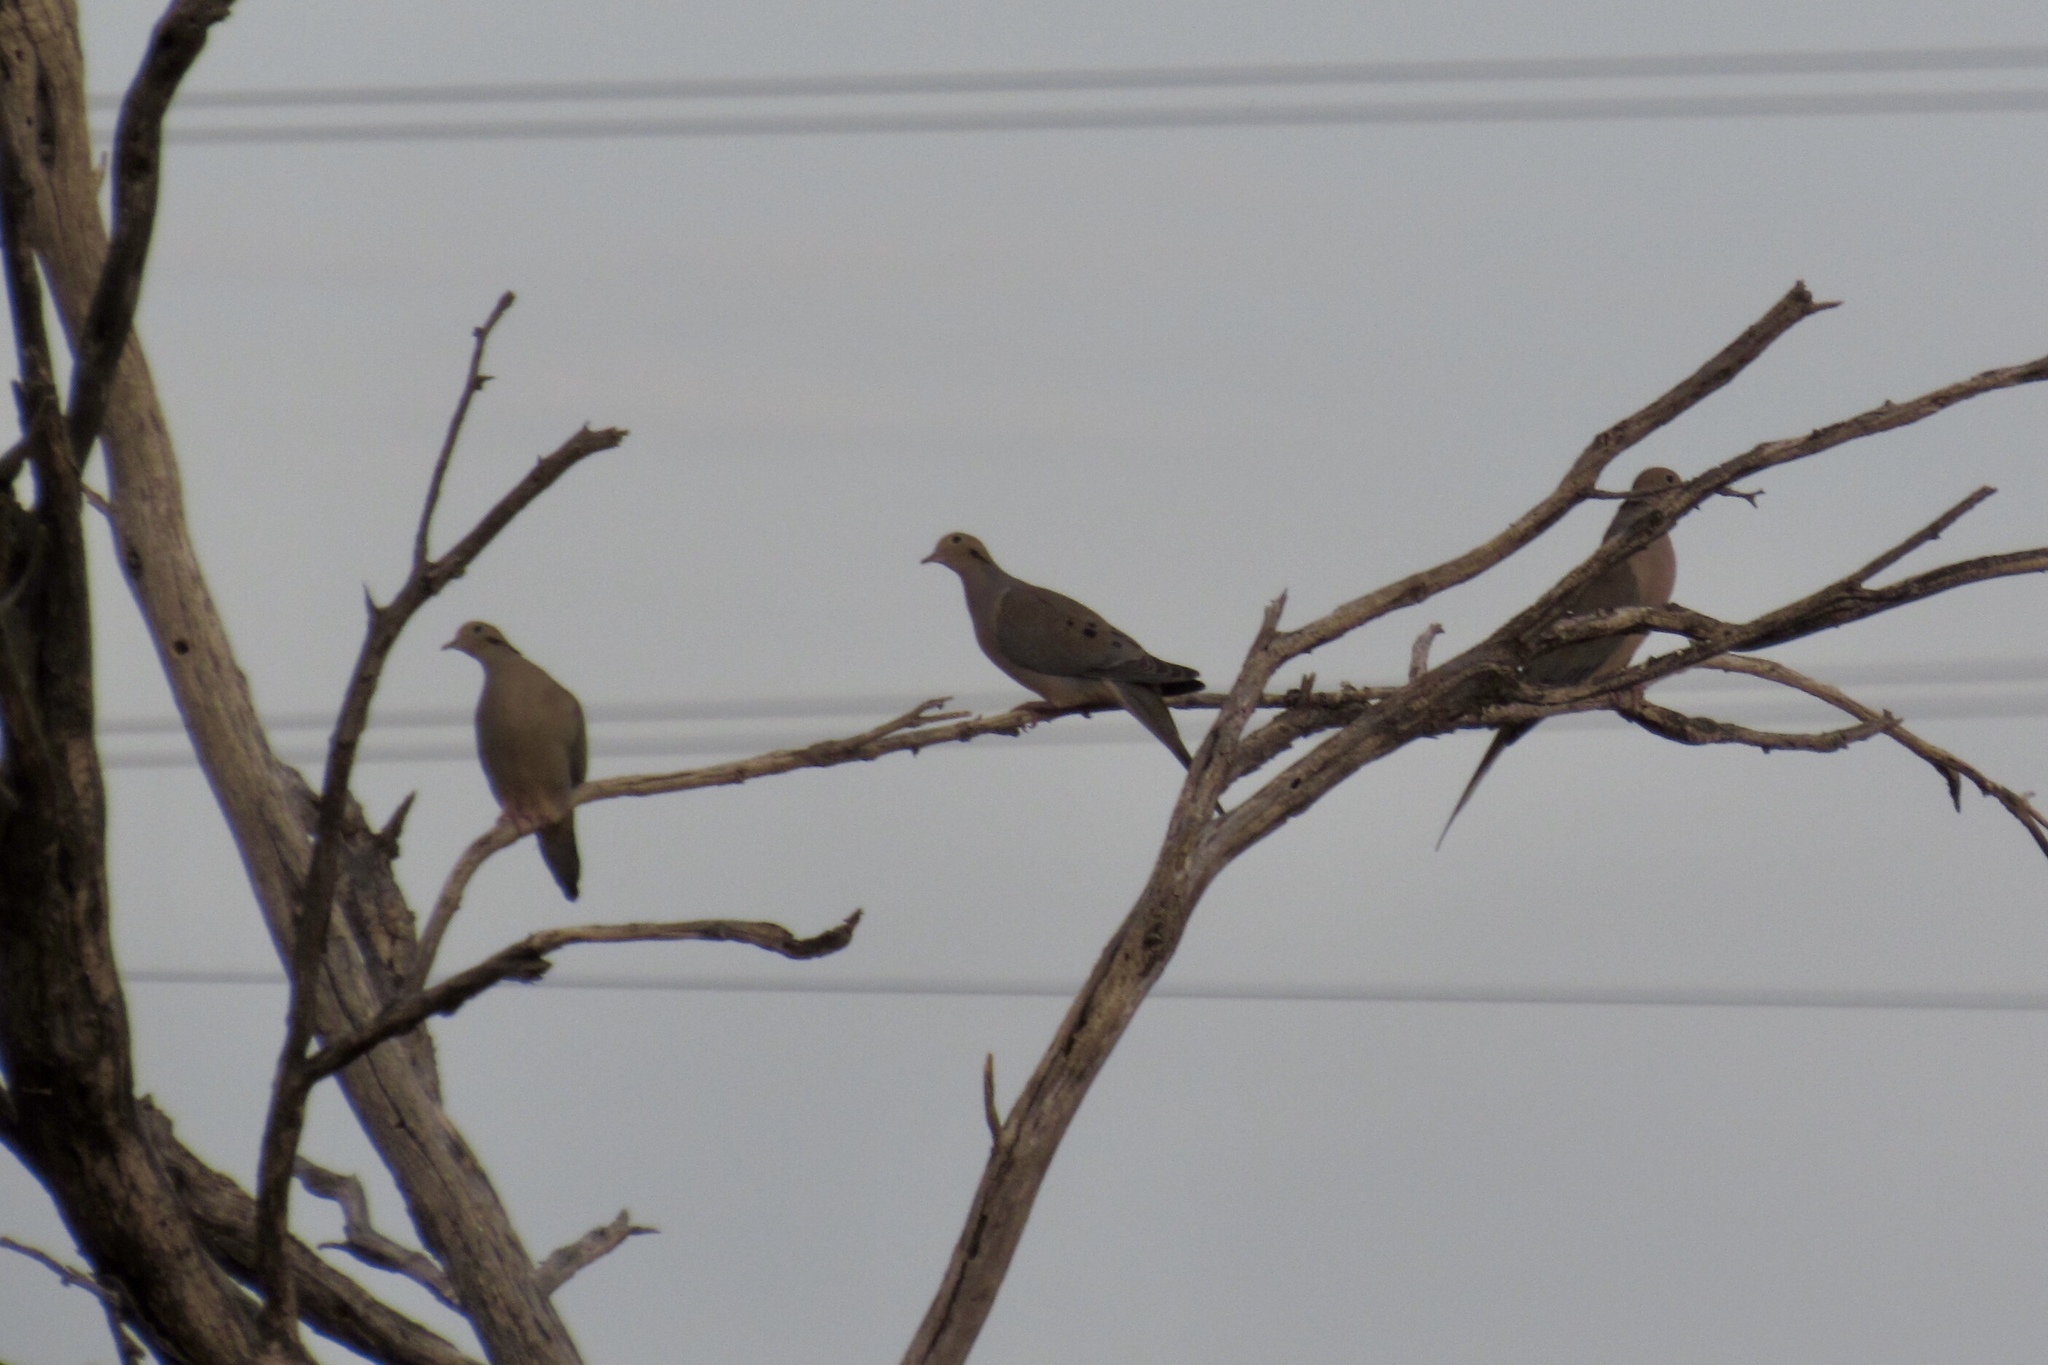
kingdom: Animalia
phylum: Chordata
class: Aves
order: Columbiformes
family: Columbidae
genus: Zenaida
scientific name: Zenaida macroura
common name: Mourning dove
